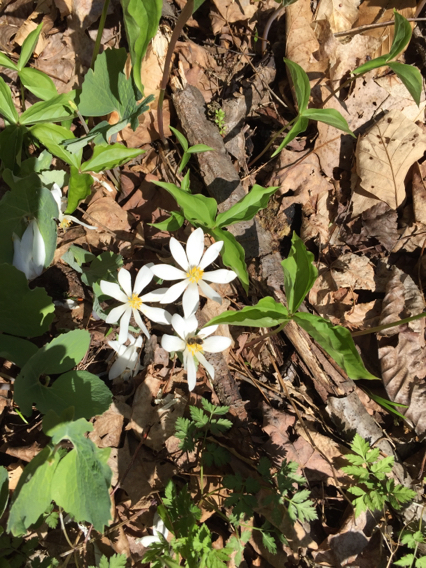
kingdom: Plantae
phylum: Tracheophyta
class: Magnoliopsida
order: Ranunculales
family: Papaveraceae
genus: Sanguinaria
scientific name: Sanguinaria canadensis
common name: Bloodroot
